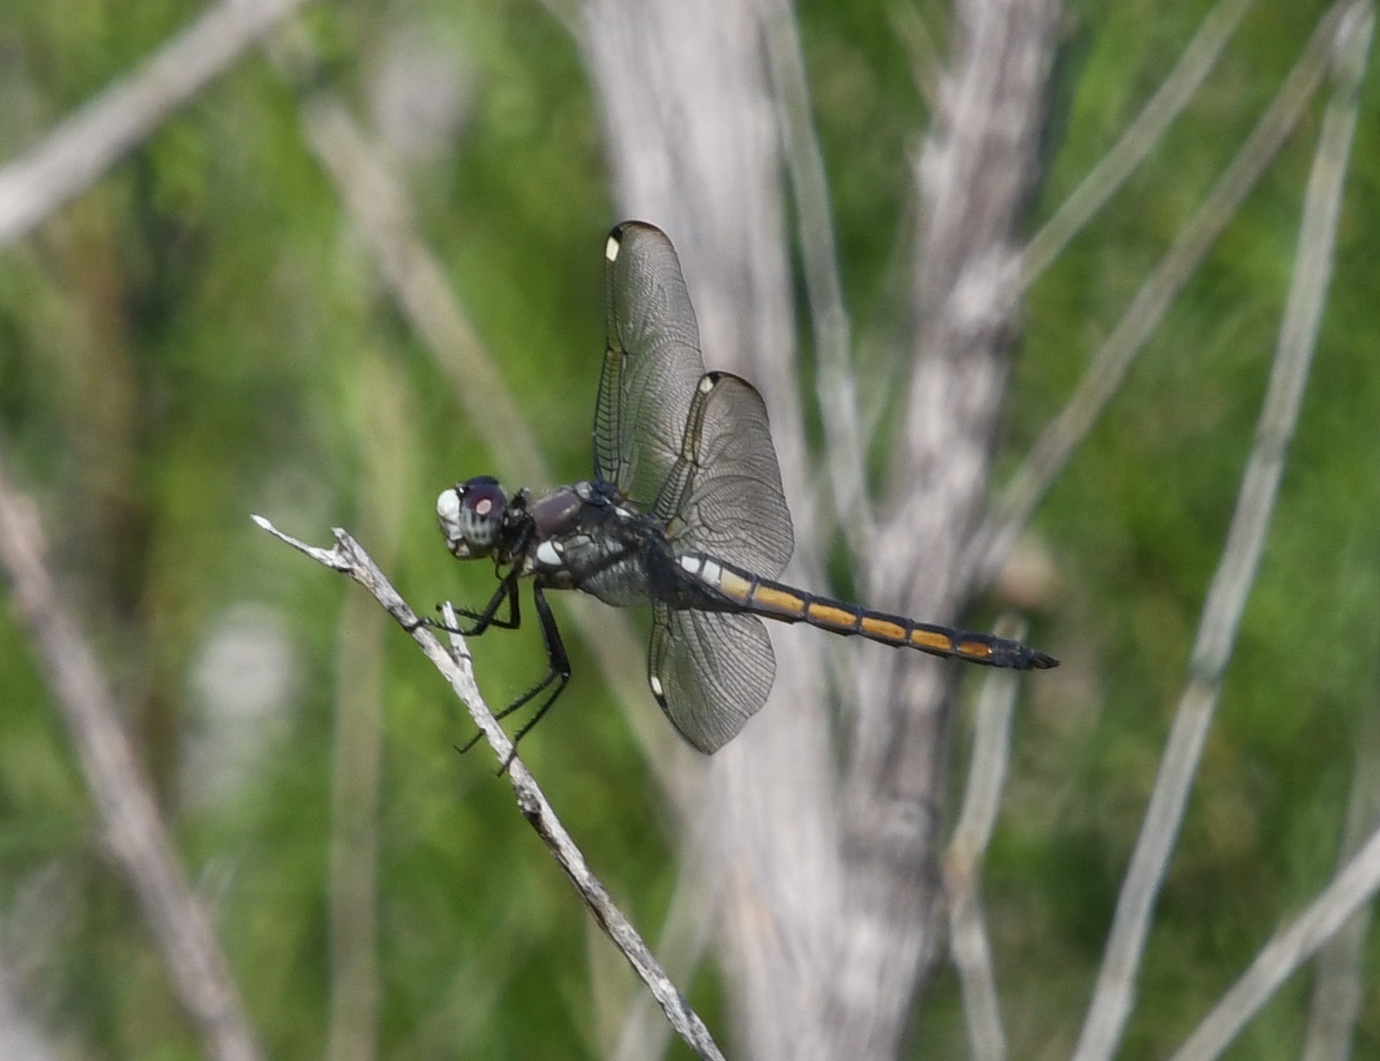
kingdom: Animalia
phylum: Arthropoda
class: Insecta
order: Odonata
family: Libellulidae
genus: Libellula
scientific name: Libellula comanche
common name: Comanche skimmer
